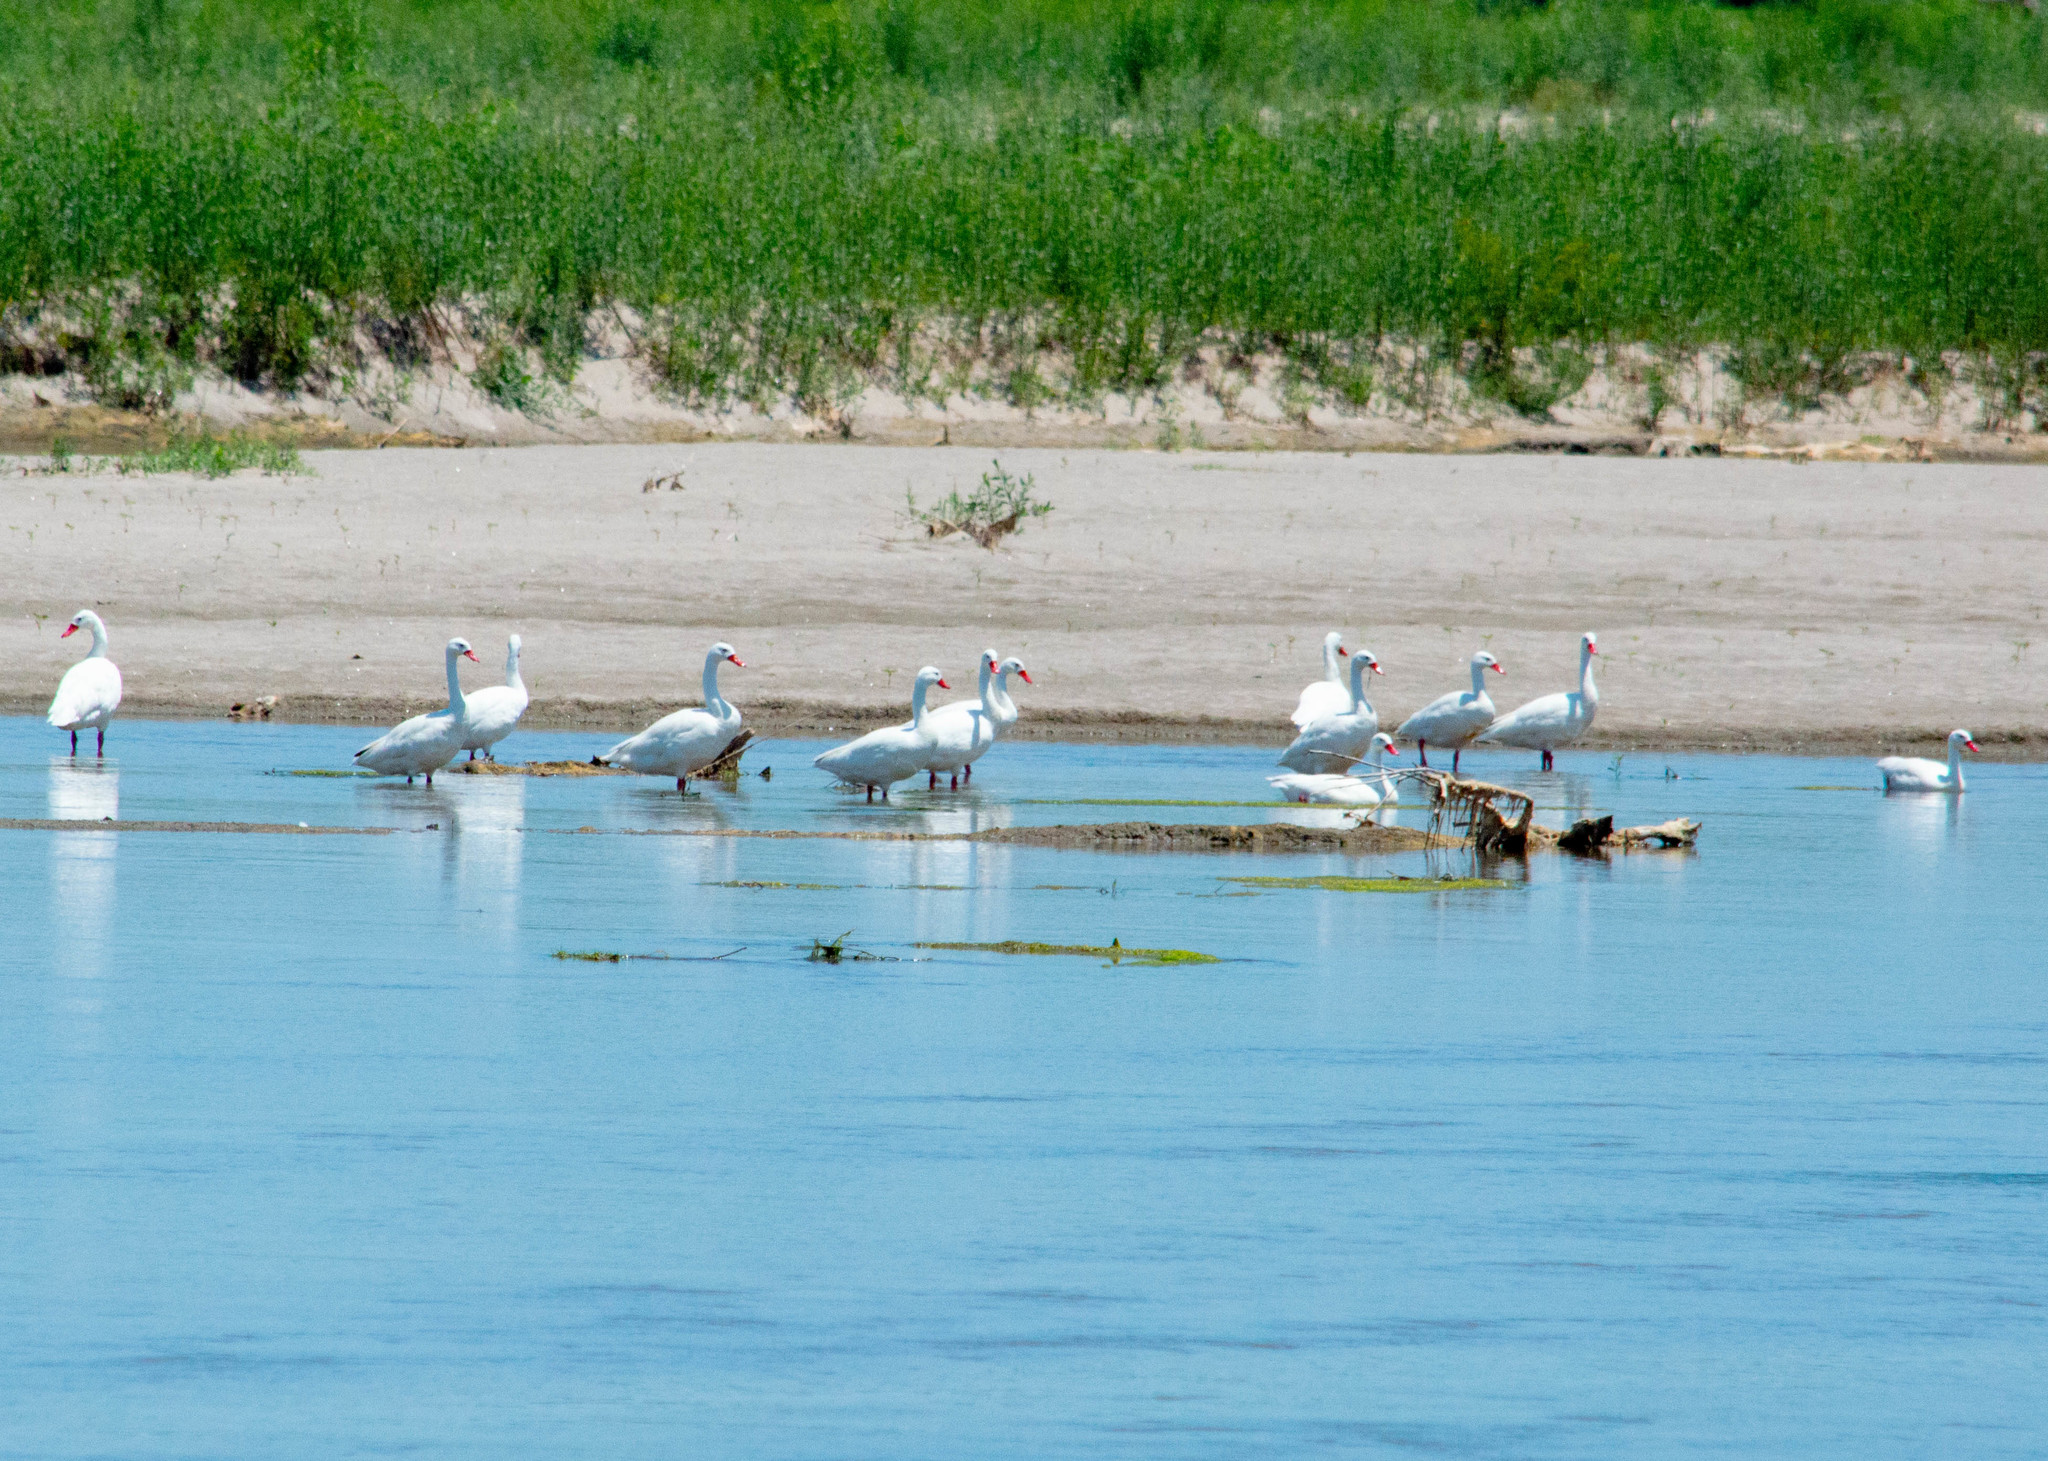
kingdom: Animalia
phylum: Chordata
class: Aves
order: Anseriformes
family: Anatidae
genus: Coscoroba
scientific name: Coscoroba coscoroba
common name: Coscoroba swan
